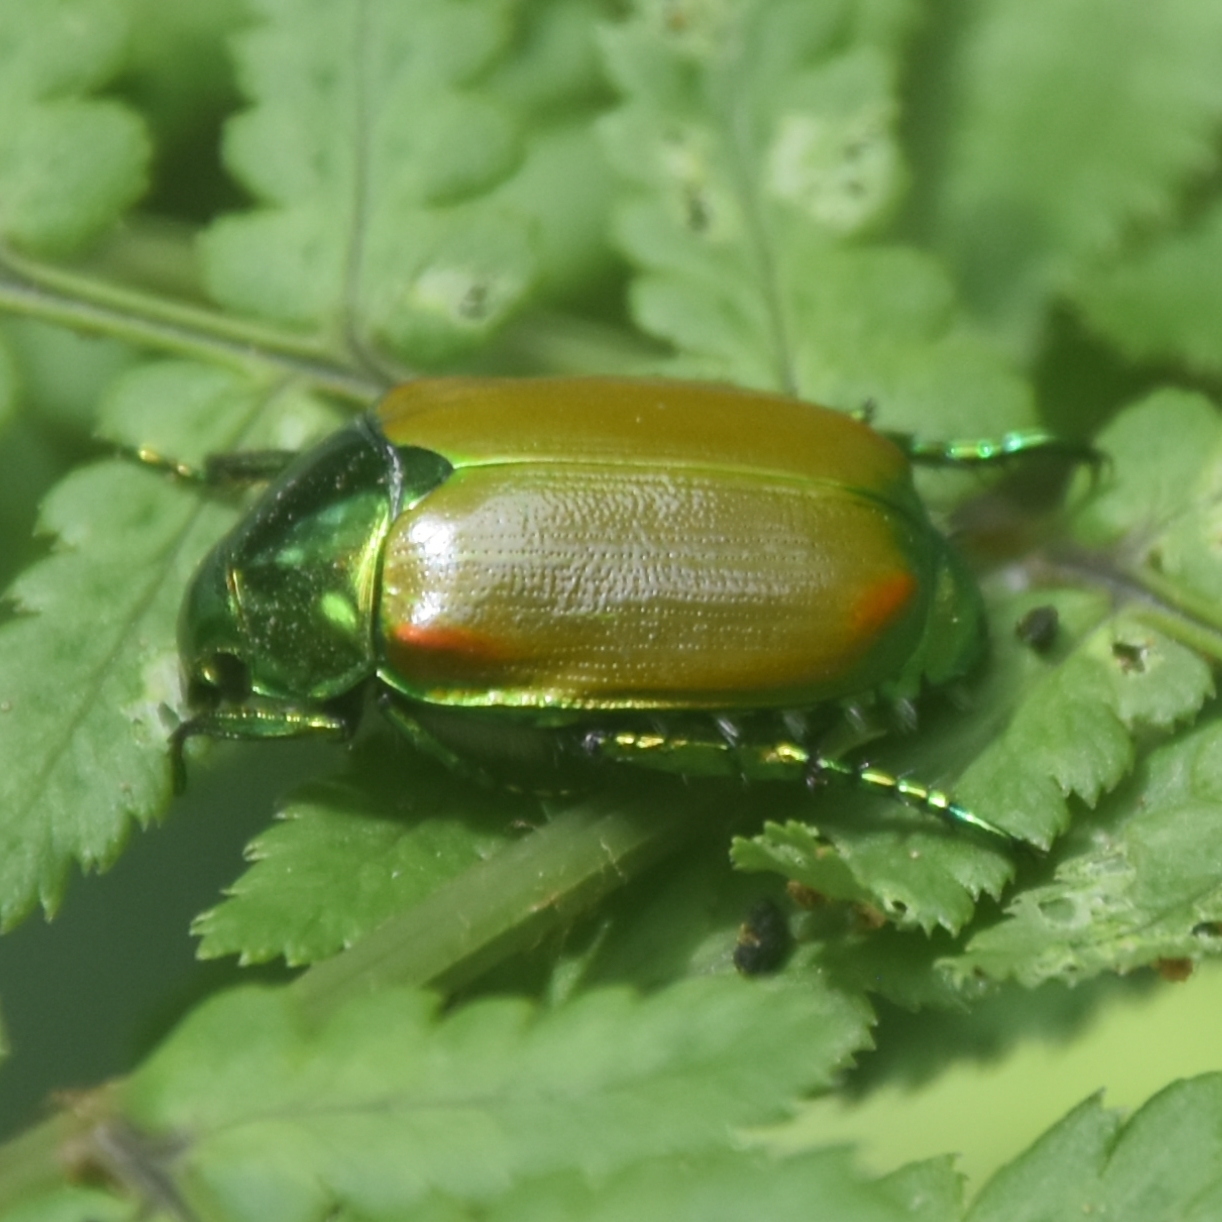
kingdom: Animalia
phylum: Arthropoda
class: Insecta
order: Coleoptera
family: Scarabaeidae
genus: Callistethus
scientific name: Callistethus stoliczkae
